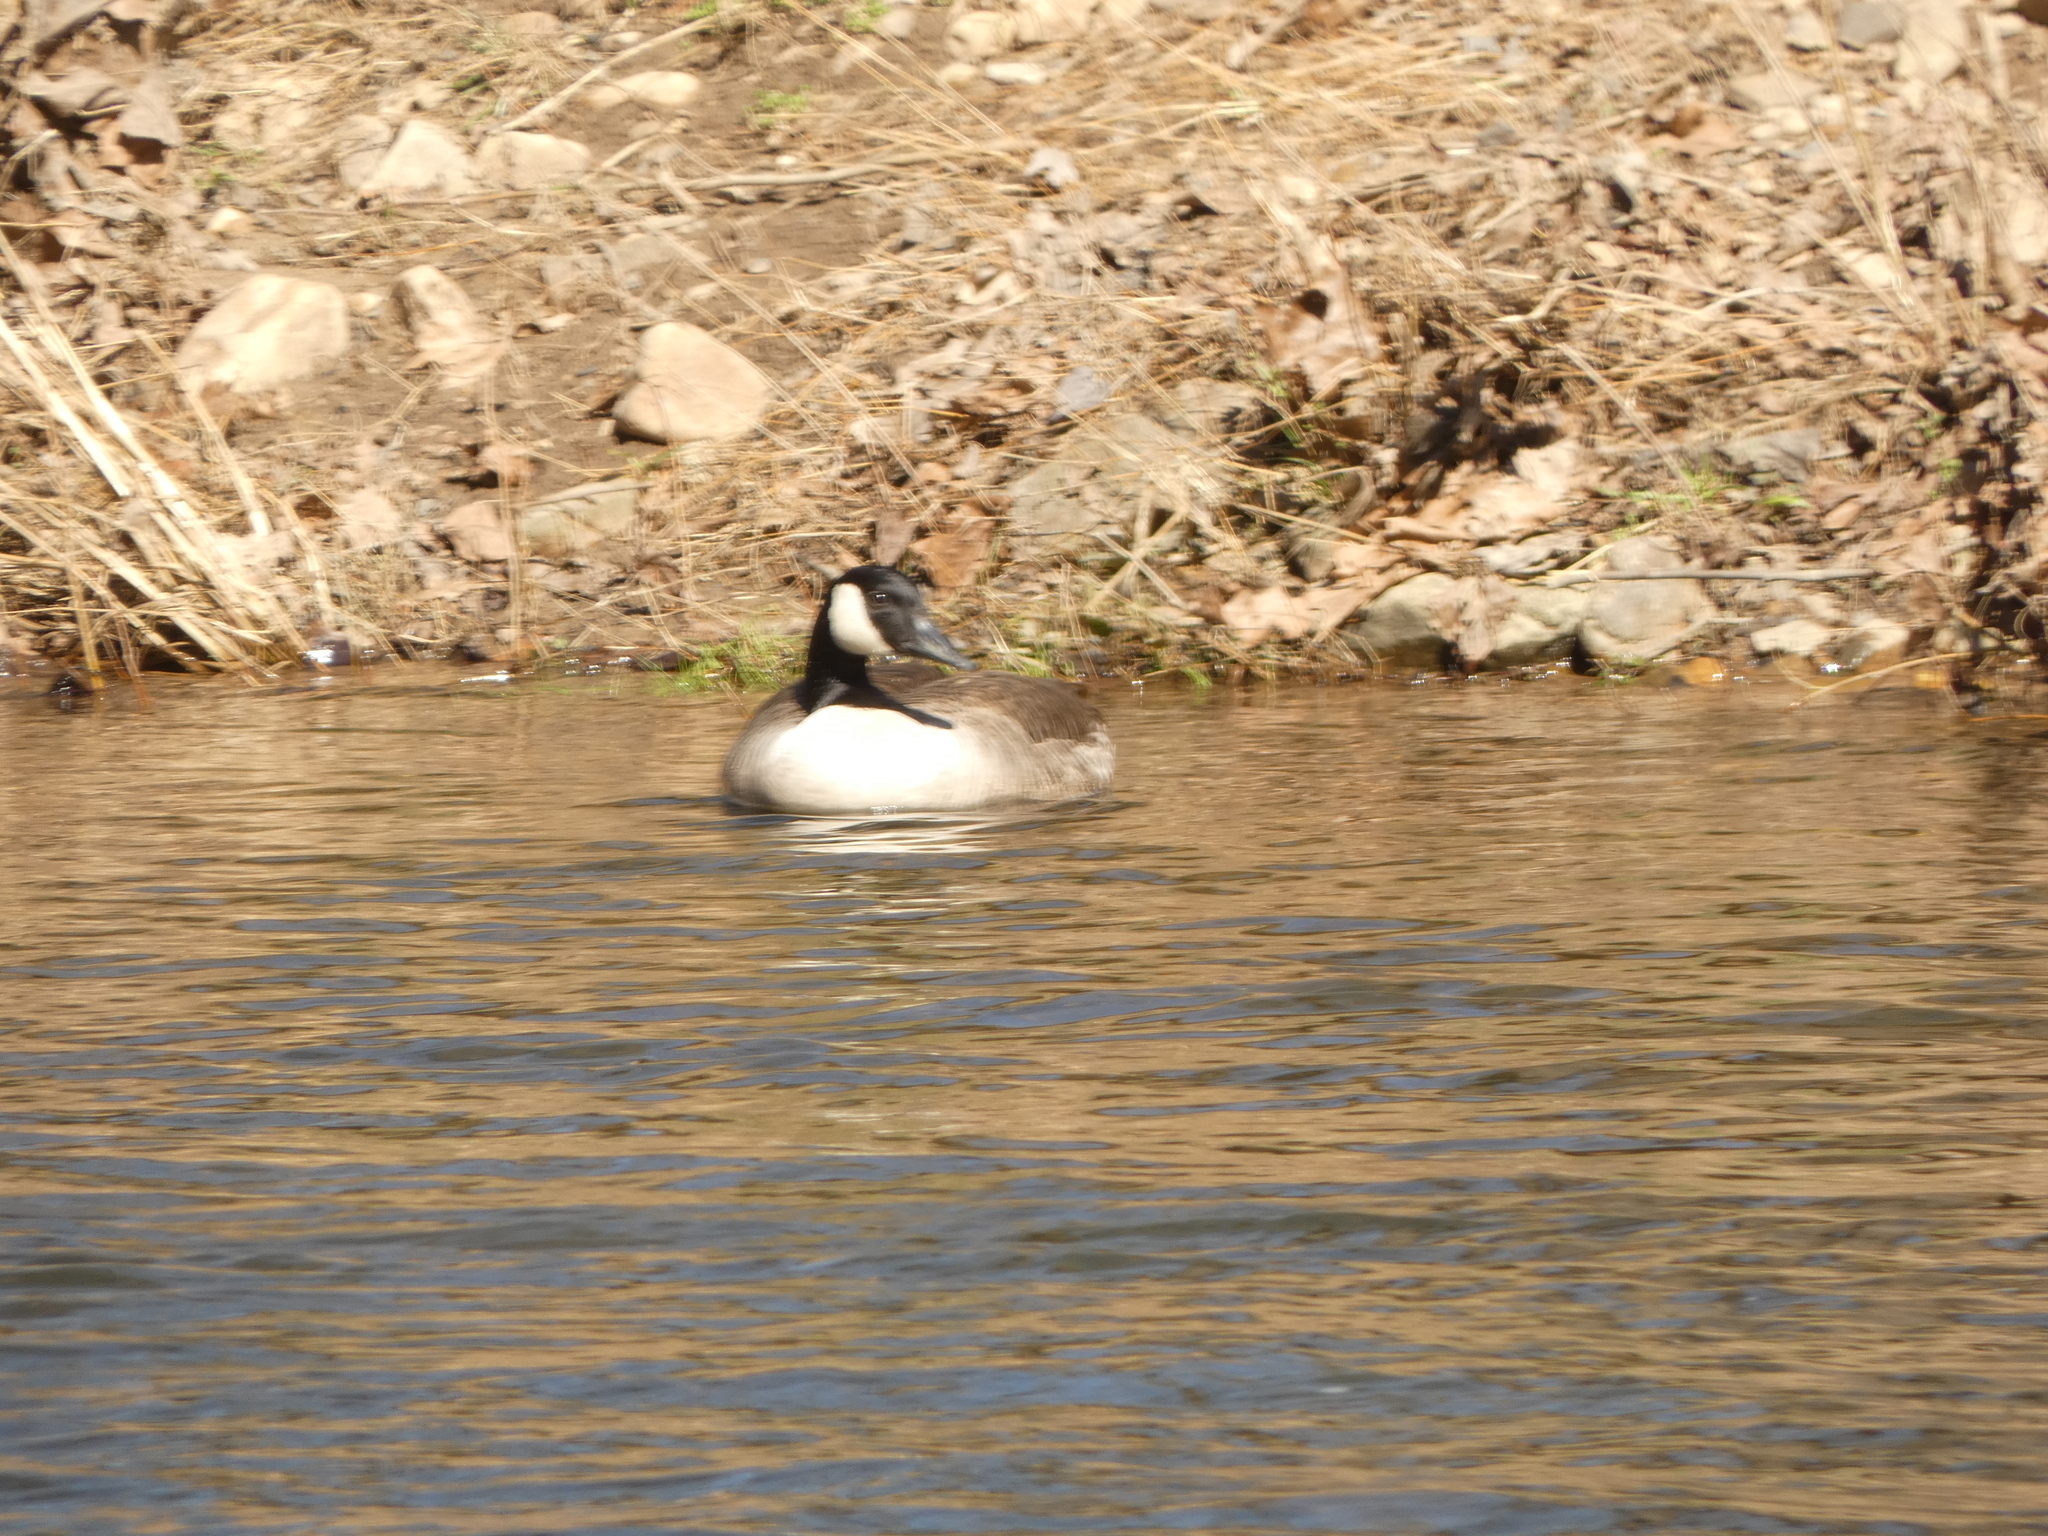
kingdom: Animalia
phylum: Chordata
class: Aves
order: Anseriformes
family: Anatidae
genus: Branta
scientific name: Branta canadensis
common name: Canada goose
